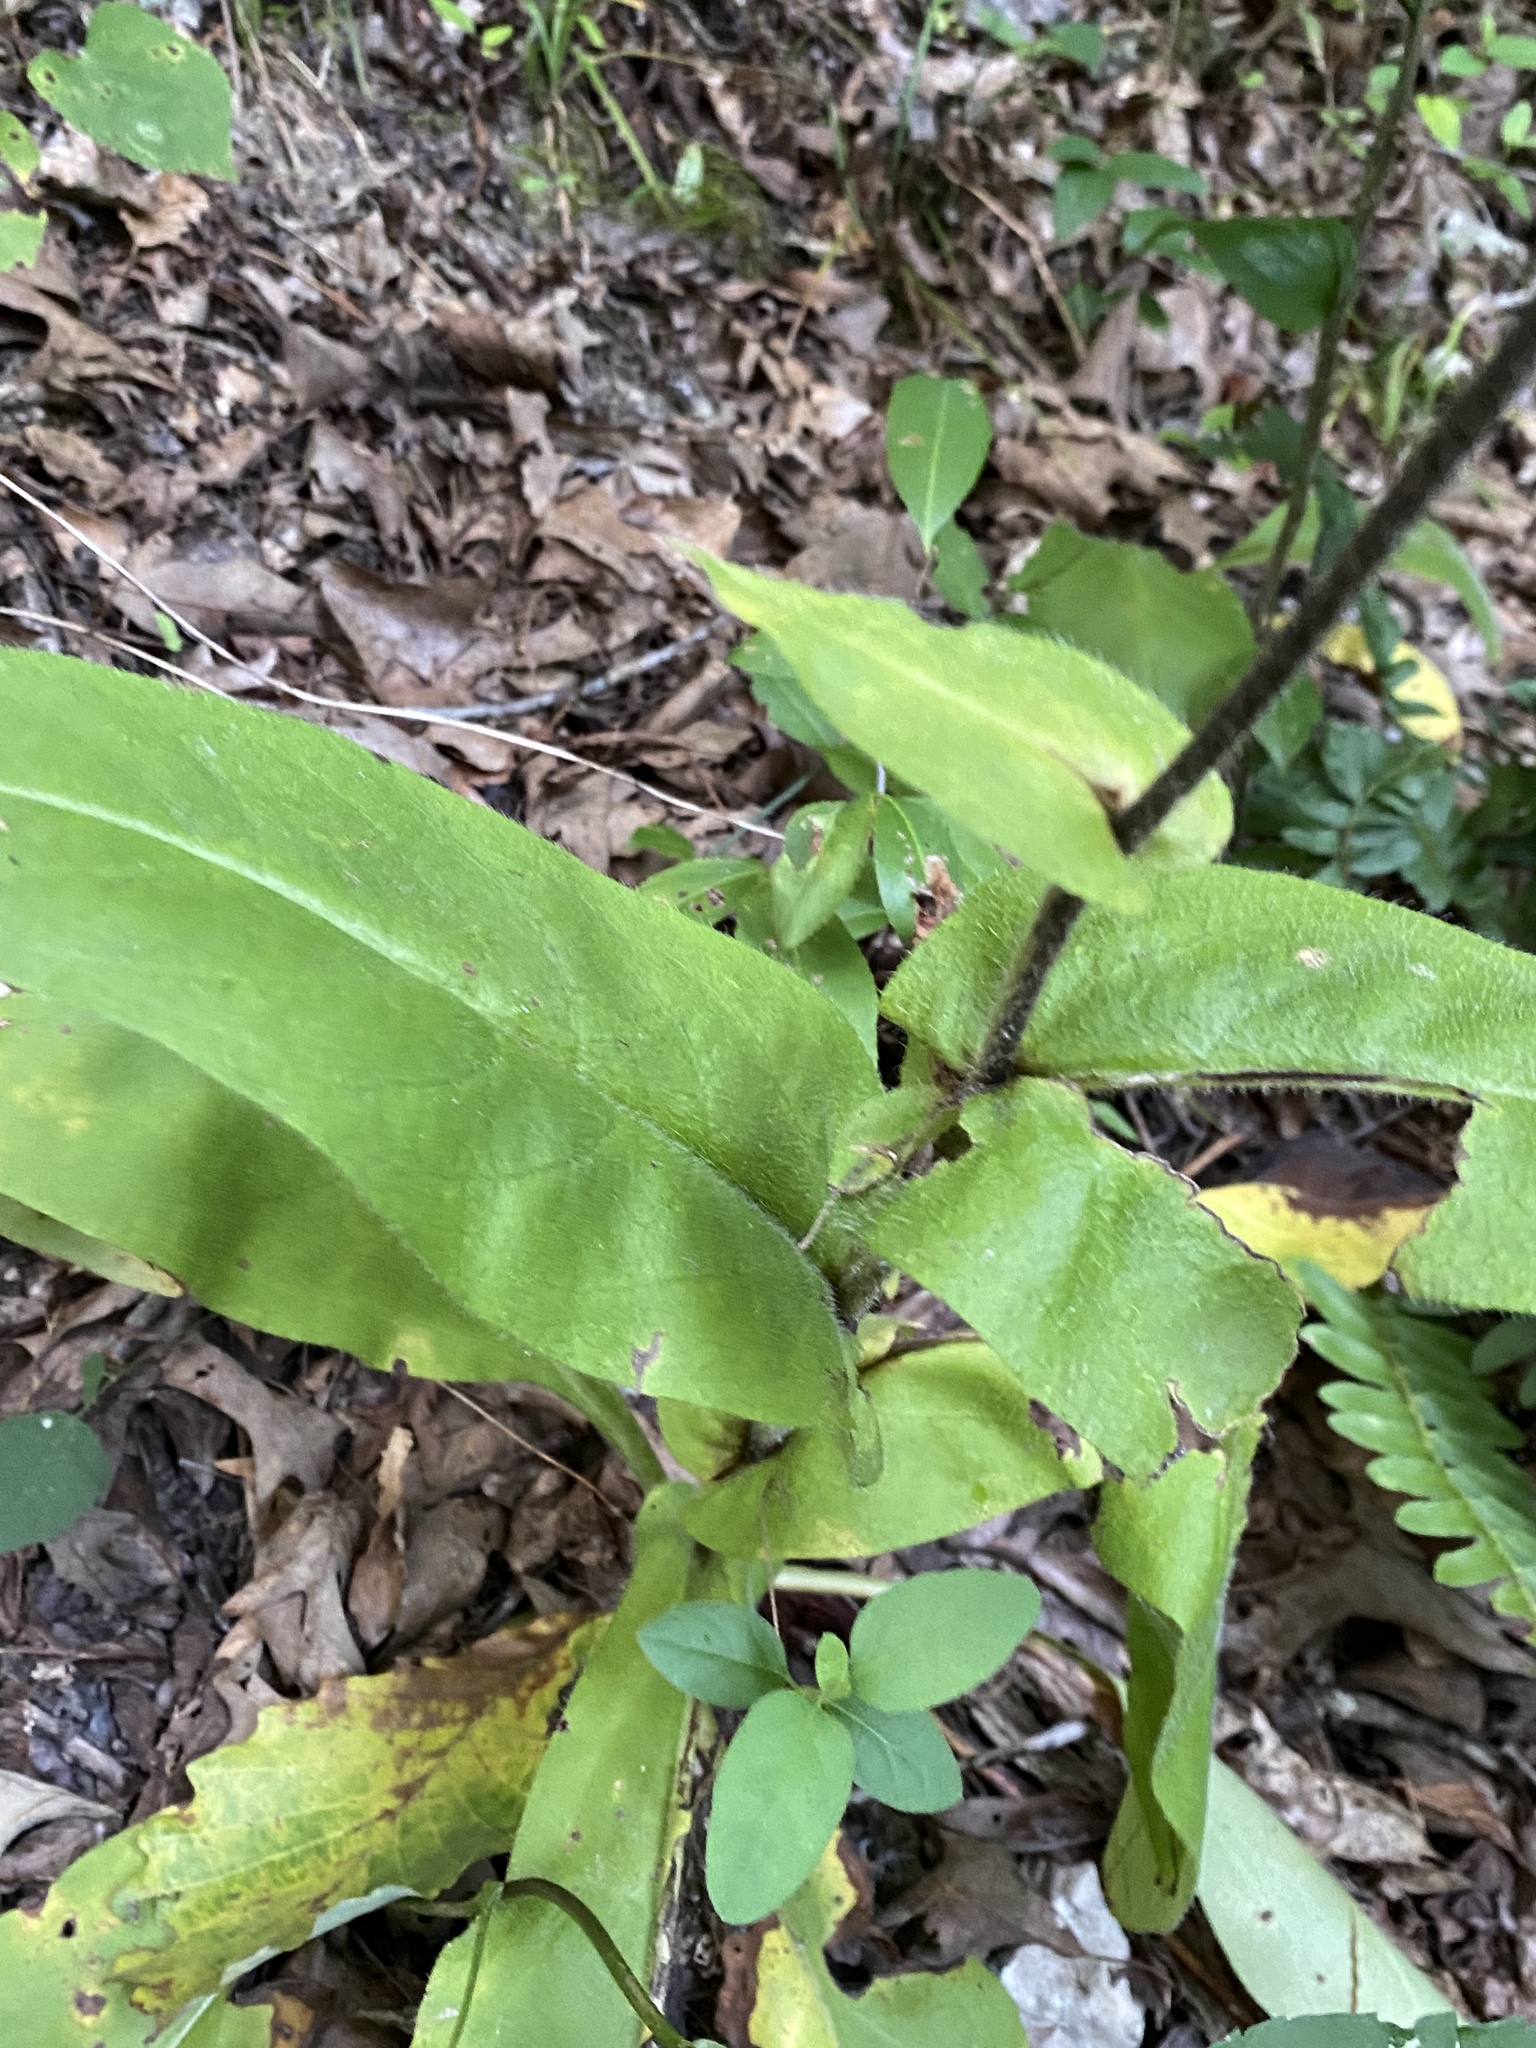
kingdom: Plantae
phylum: Tracheophyta
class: Magnoliopsida
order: Boraginales
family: Boraginaceae
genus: Andersonglossum
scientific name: Andersonglossum virginianum
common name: Wild comfrey
